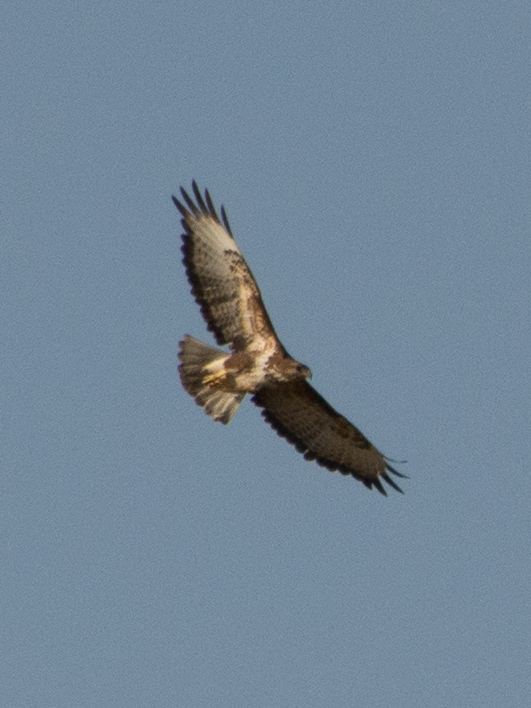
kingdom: Animalia
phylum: Chordata
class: Aves
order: Accipitriformes
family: Accipitridae
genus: Buteo
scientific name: Buteo buteo
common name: Common buzzard
